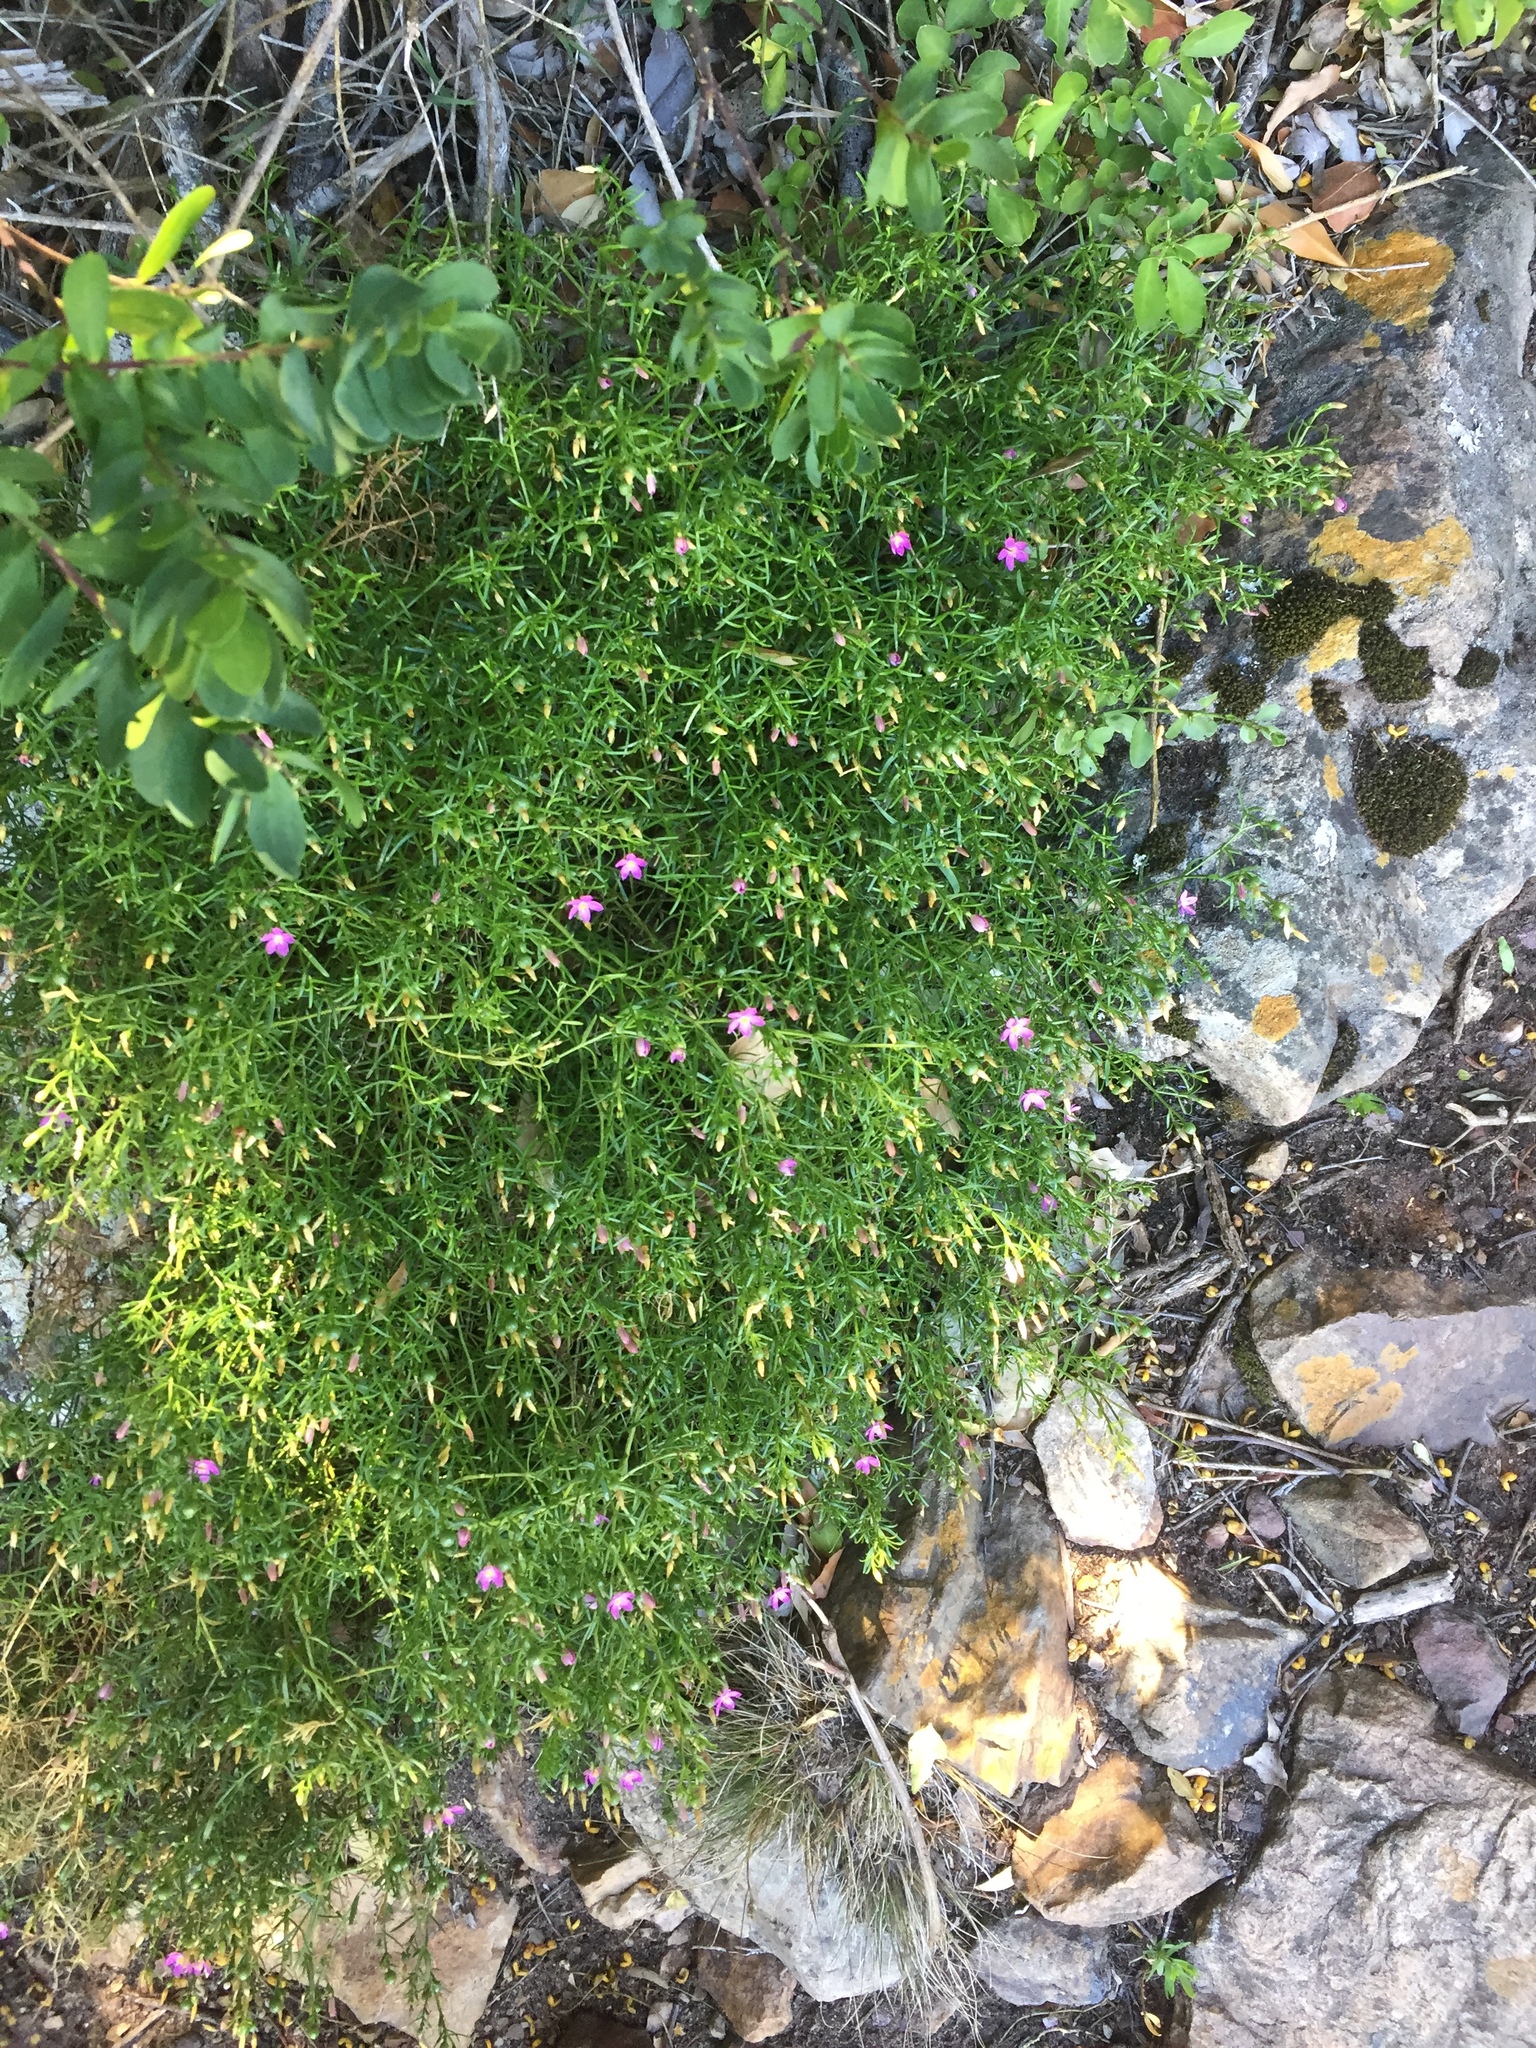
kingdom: Plantae
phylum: Tracheophyta
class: Magnoliopsida
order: Gentianales
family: Gentianaceae
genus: Chironia
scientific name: Chironia baccifera
